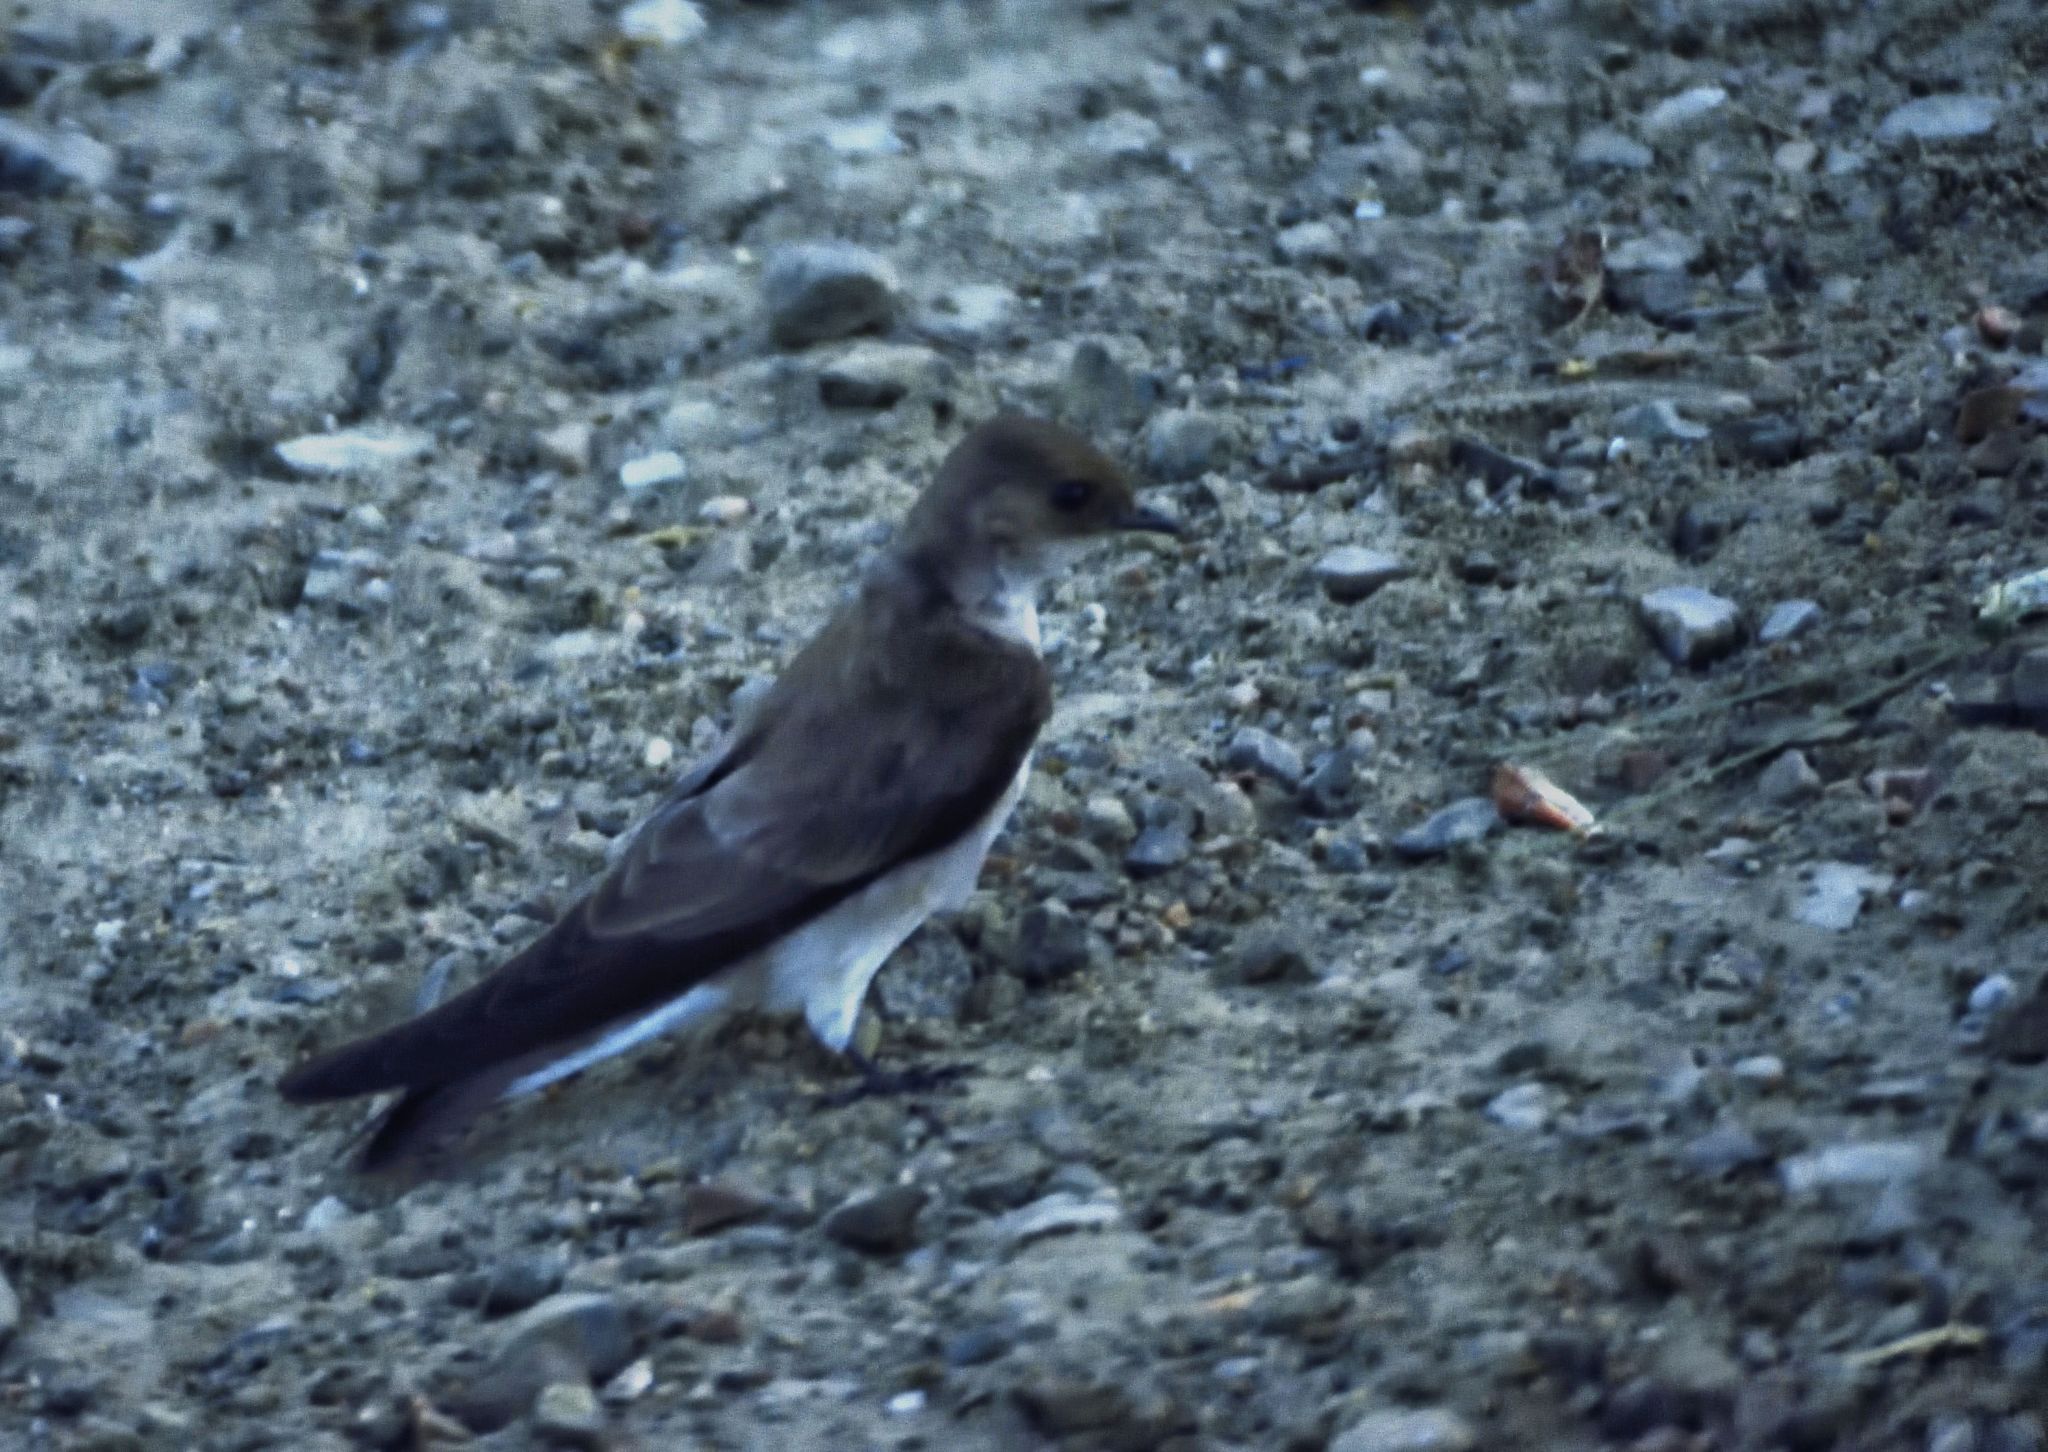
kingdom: Animalia
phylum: Chordata
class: Aves
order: Passeriformes
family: Hirundinidae
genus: Stelgidopteryx
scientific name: Stelgidopteryx serripennis
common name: Northern rough-winged swallow
